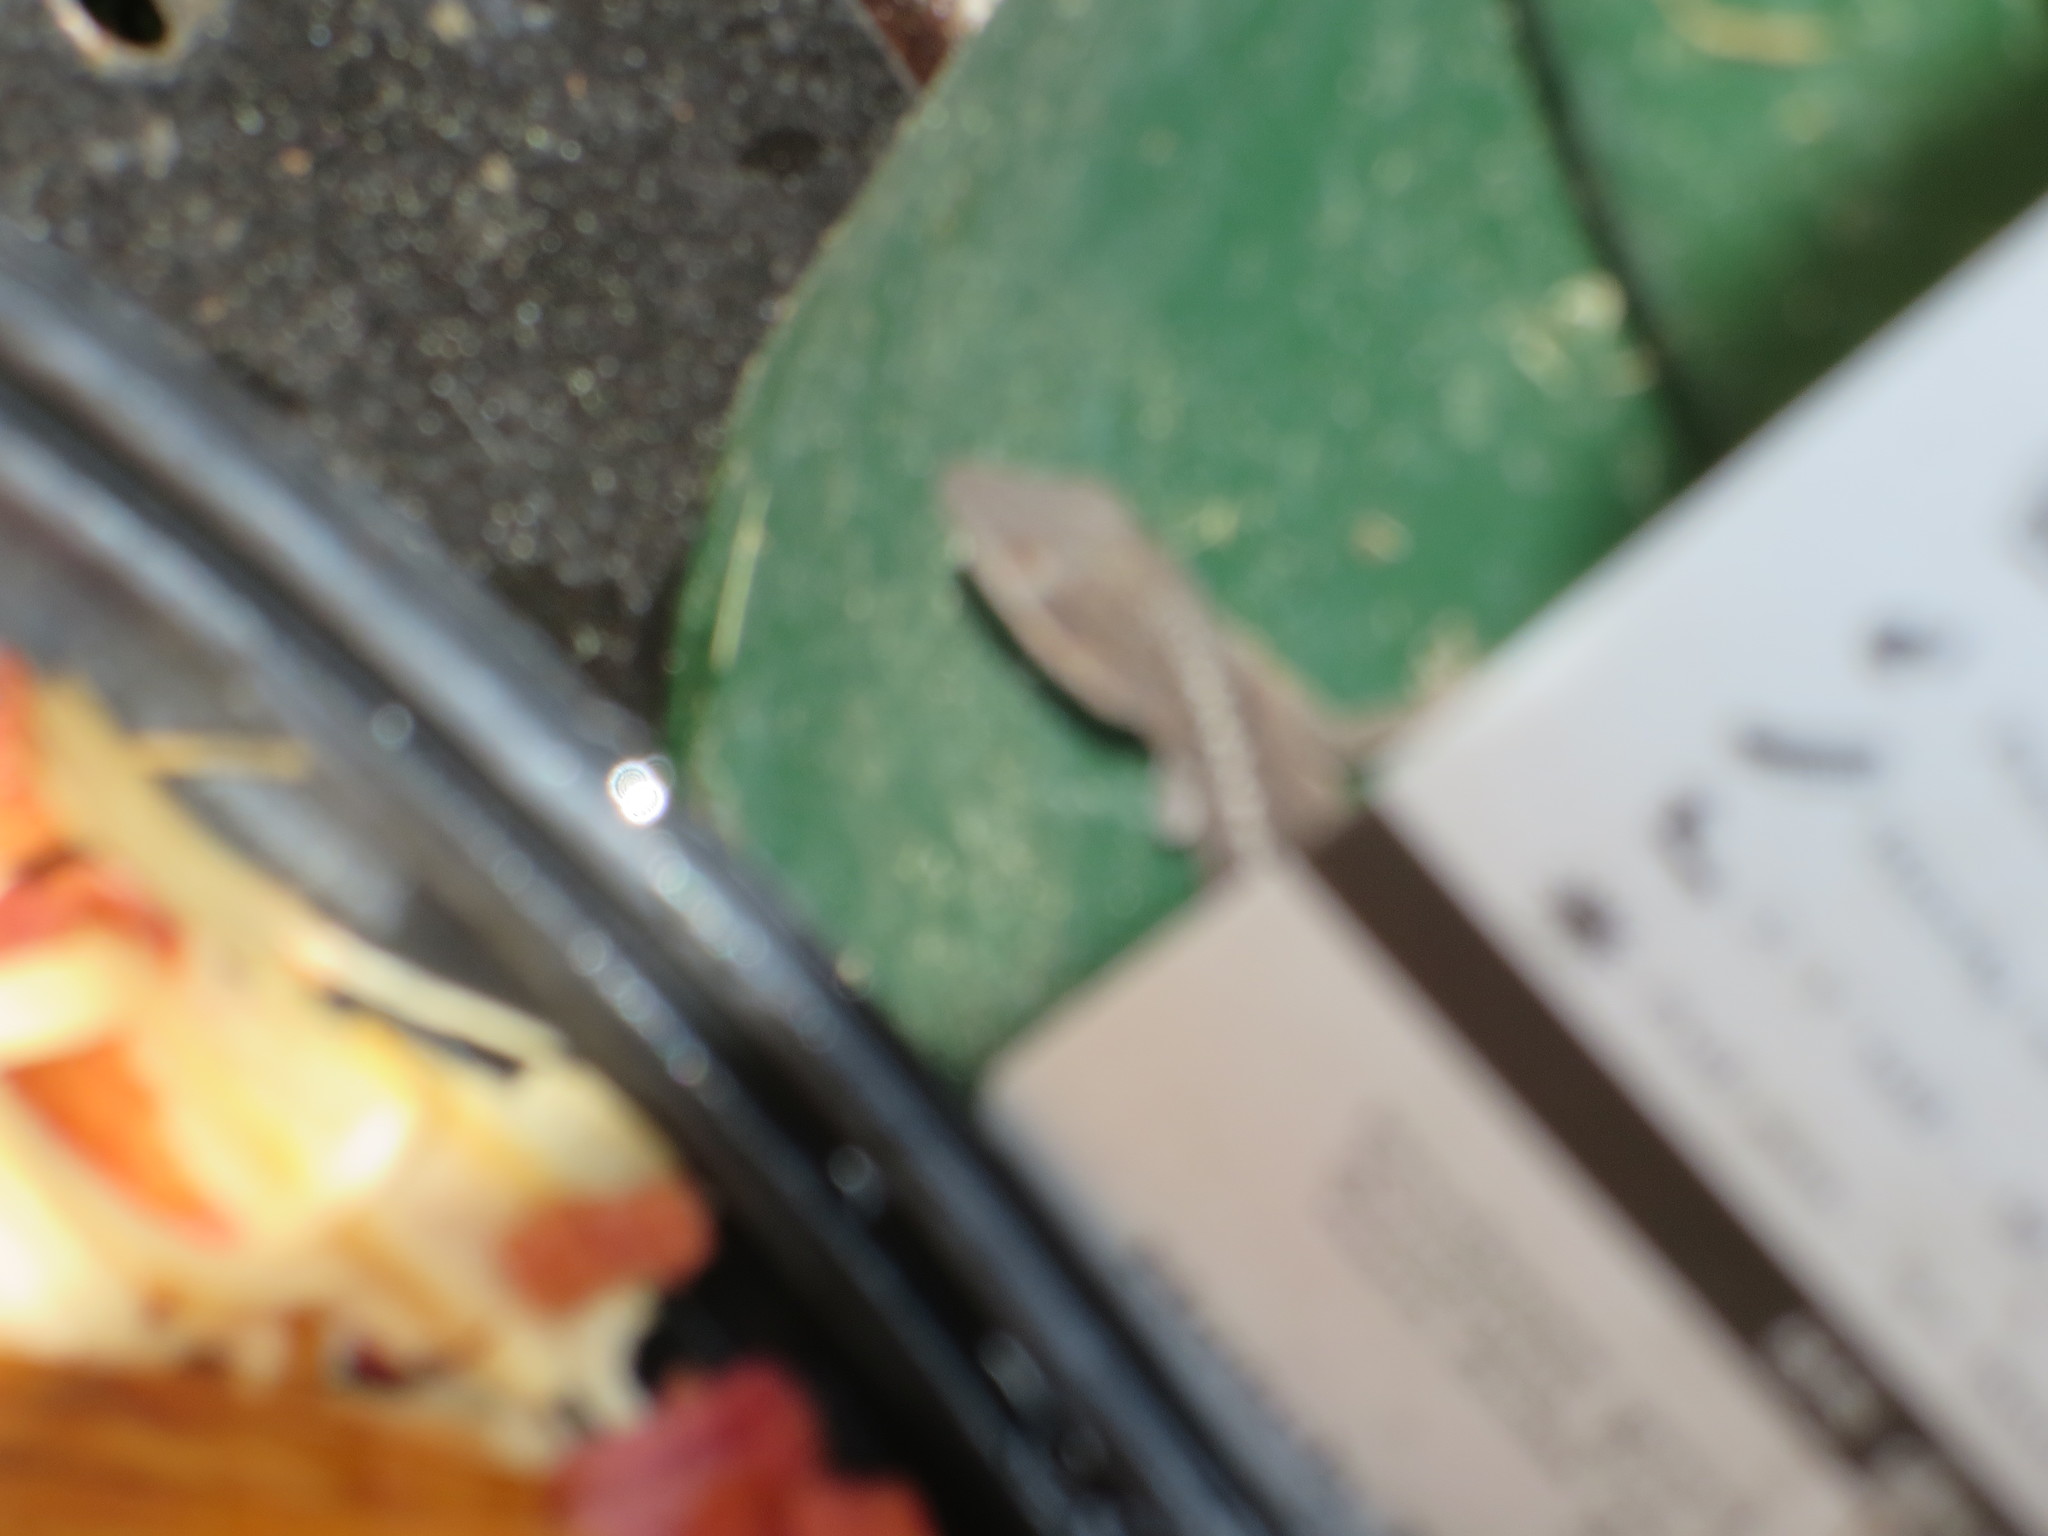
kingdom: Animalia
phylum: Chordata
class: Squamata
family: Dactyloidae
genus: Anolis
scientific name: Anolis carolinensis
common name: Green anole
